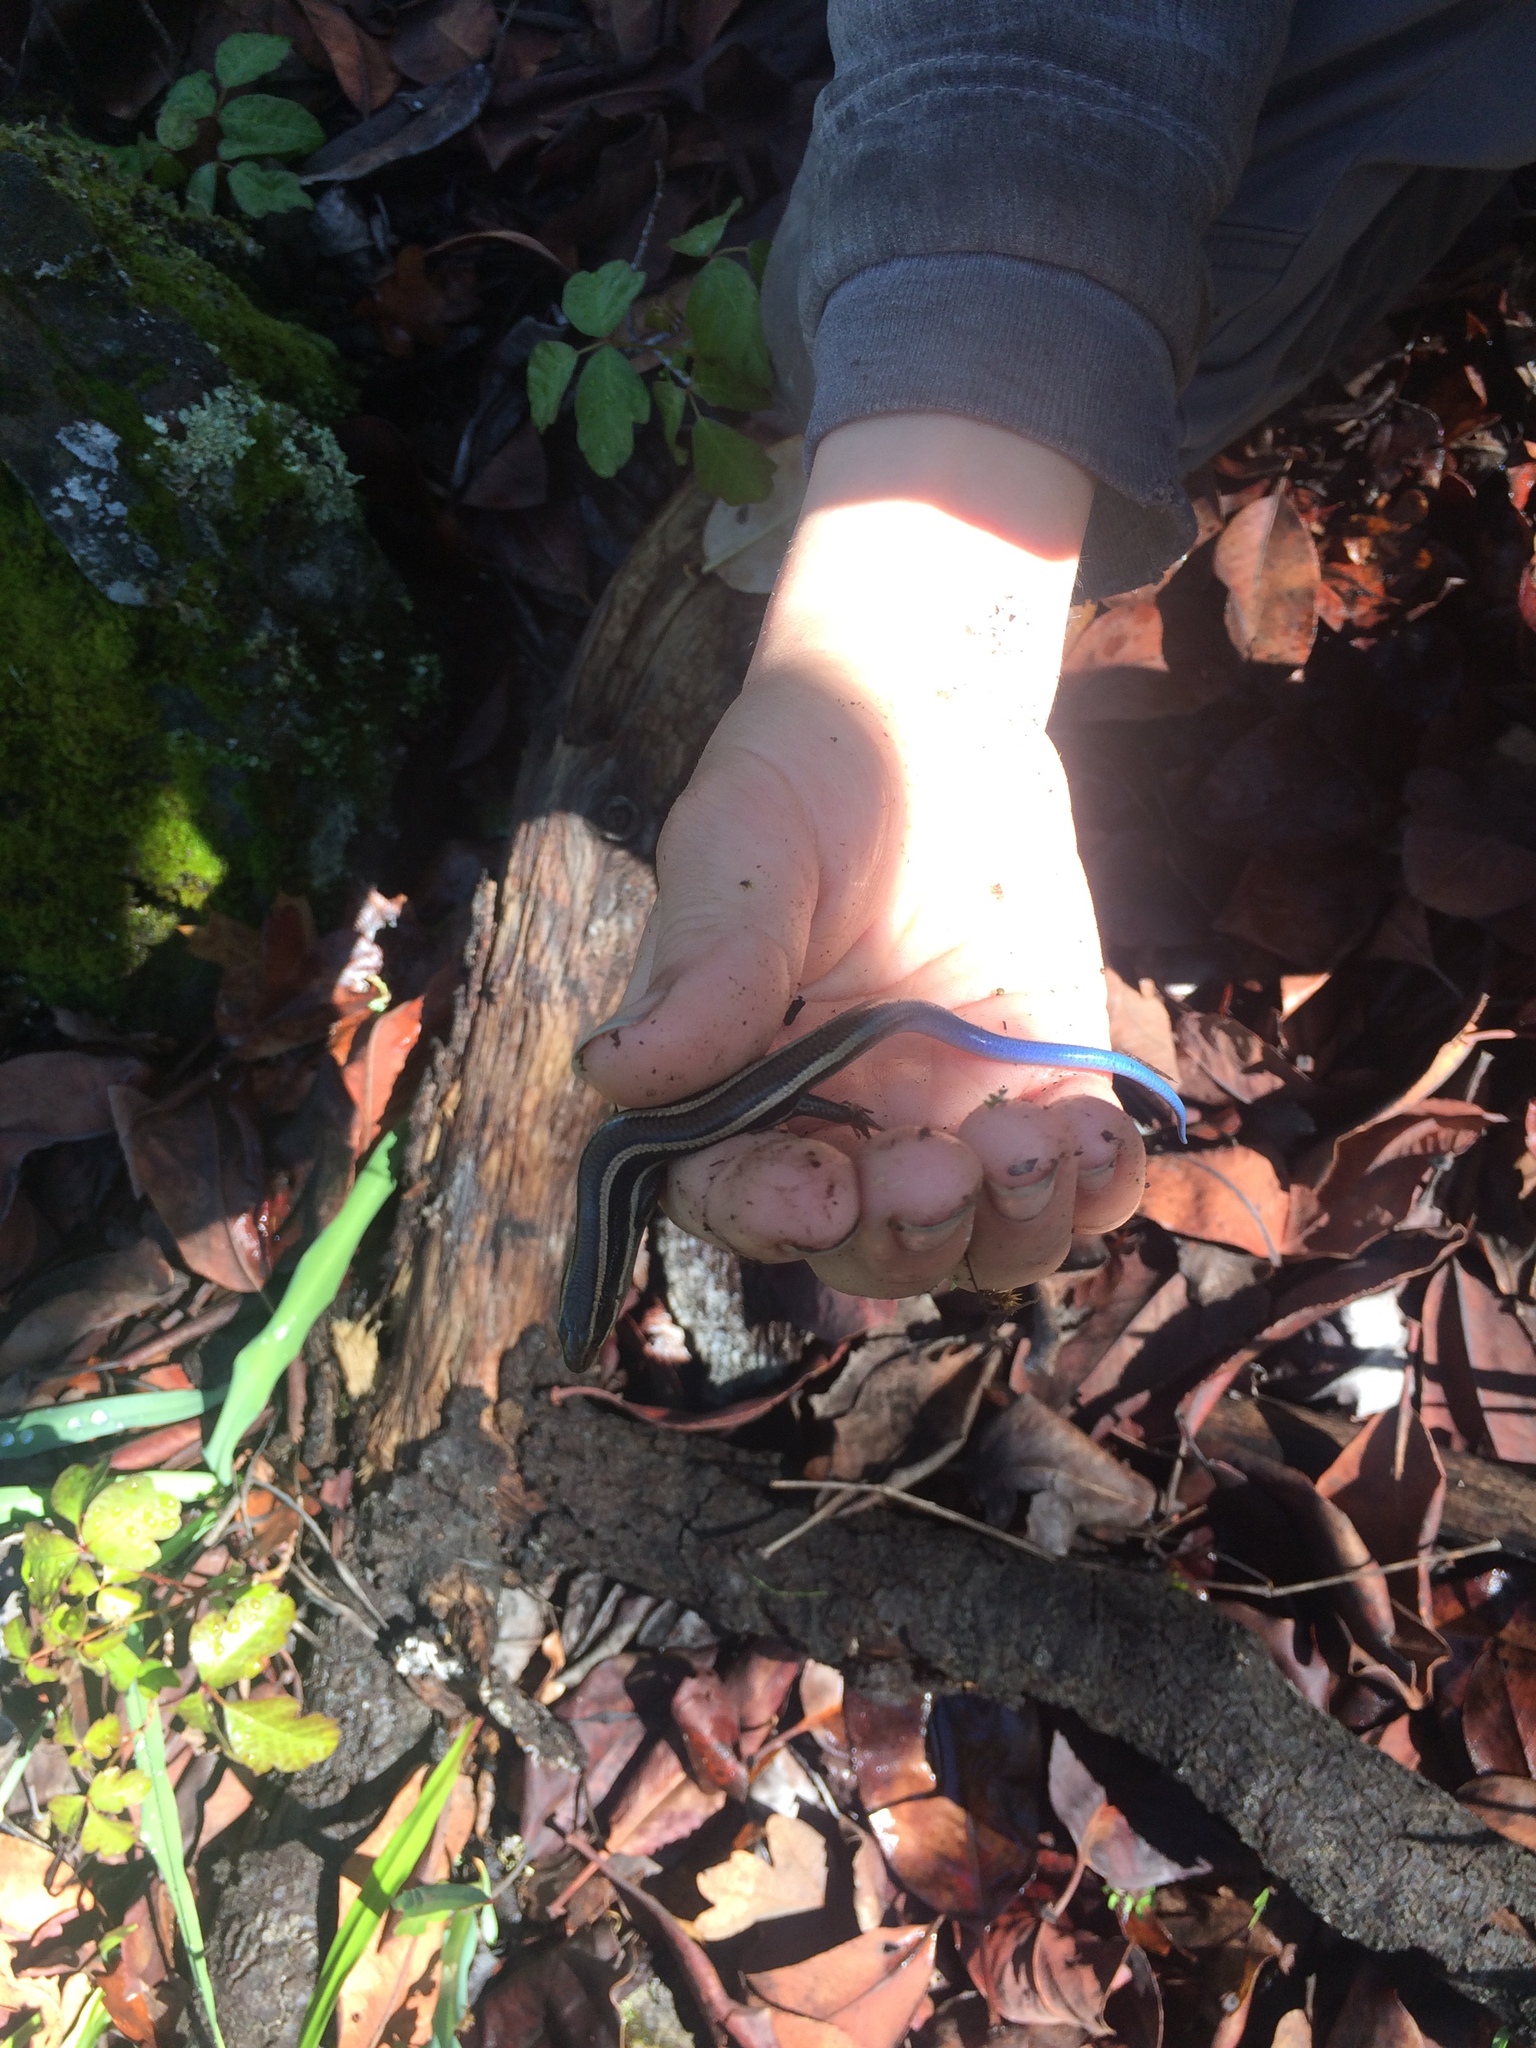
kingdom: Animalia
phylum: Chordata
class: Squamata
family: Scincidae
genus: Plestiodon
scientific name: Plestiodon skiltonianus
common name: Coronado island skink [interparietalis]
